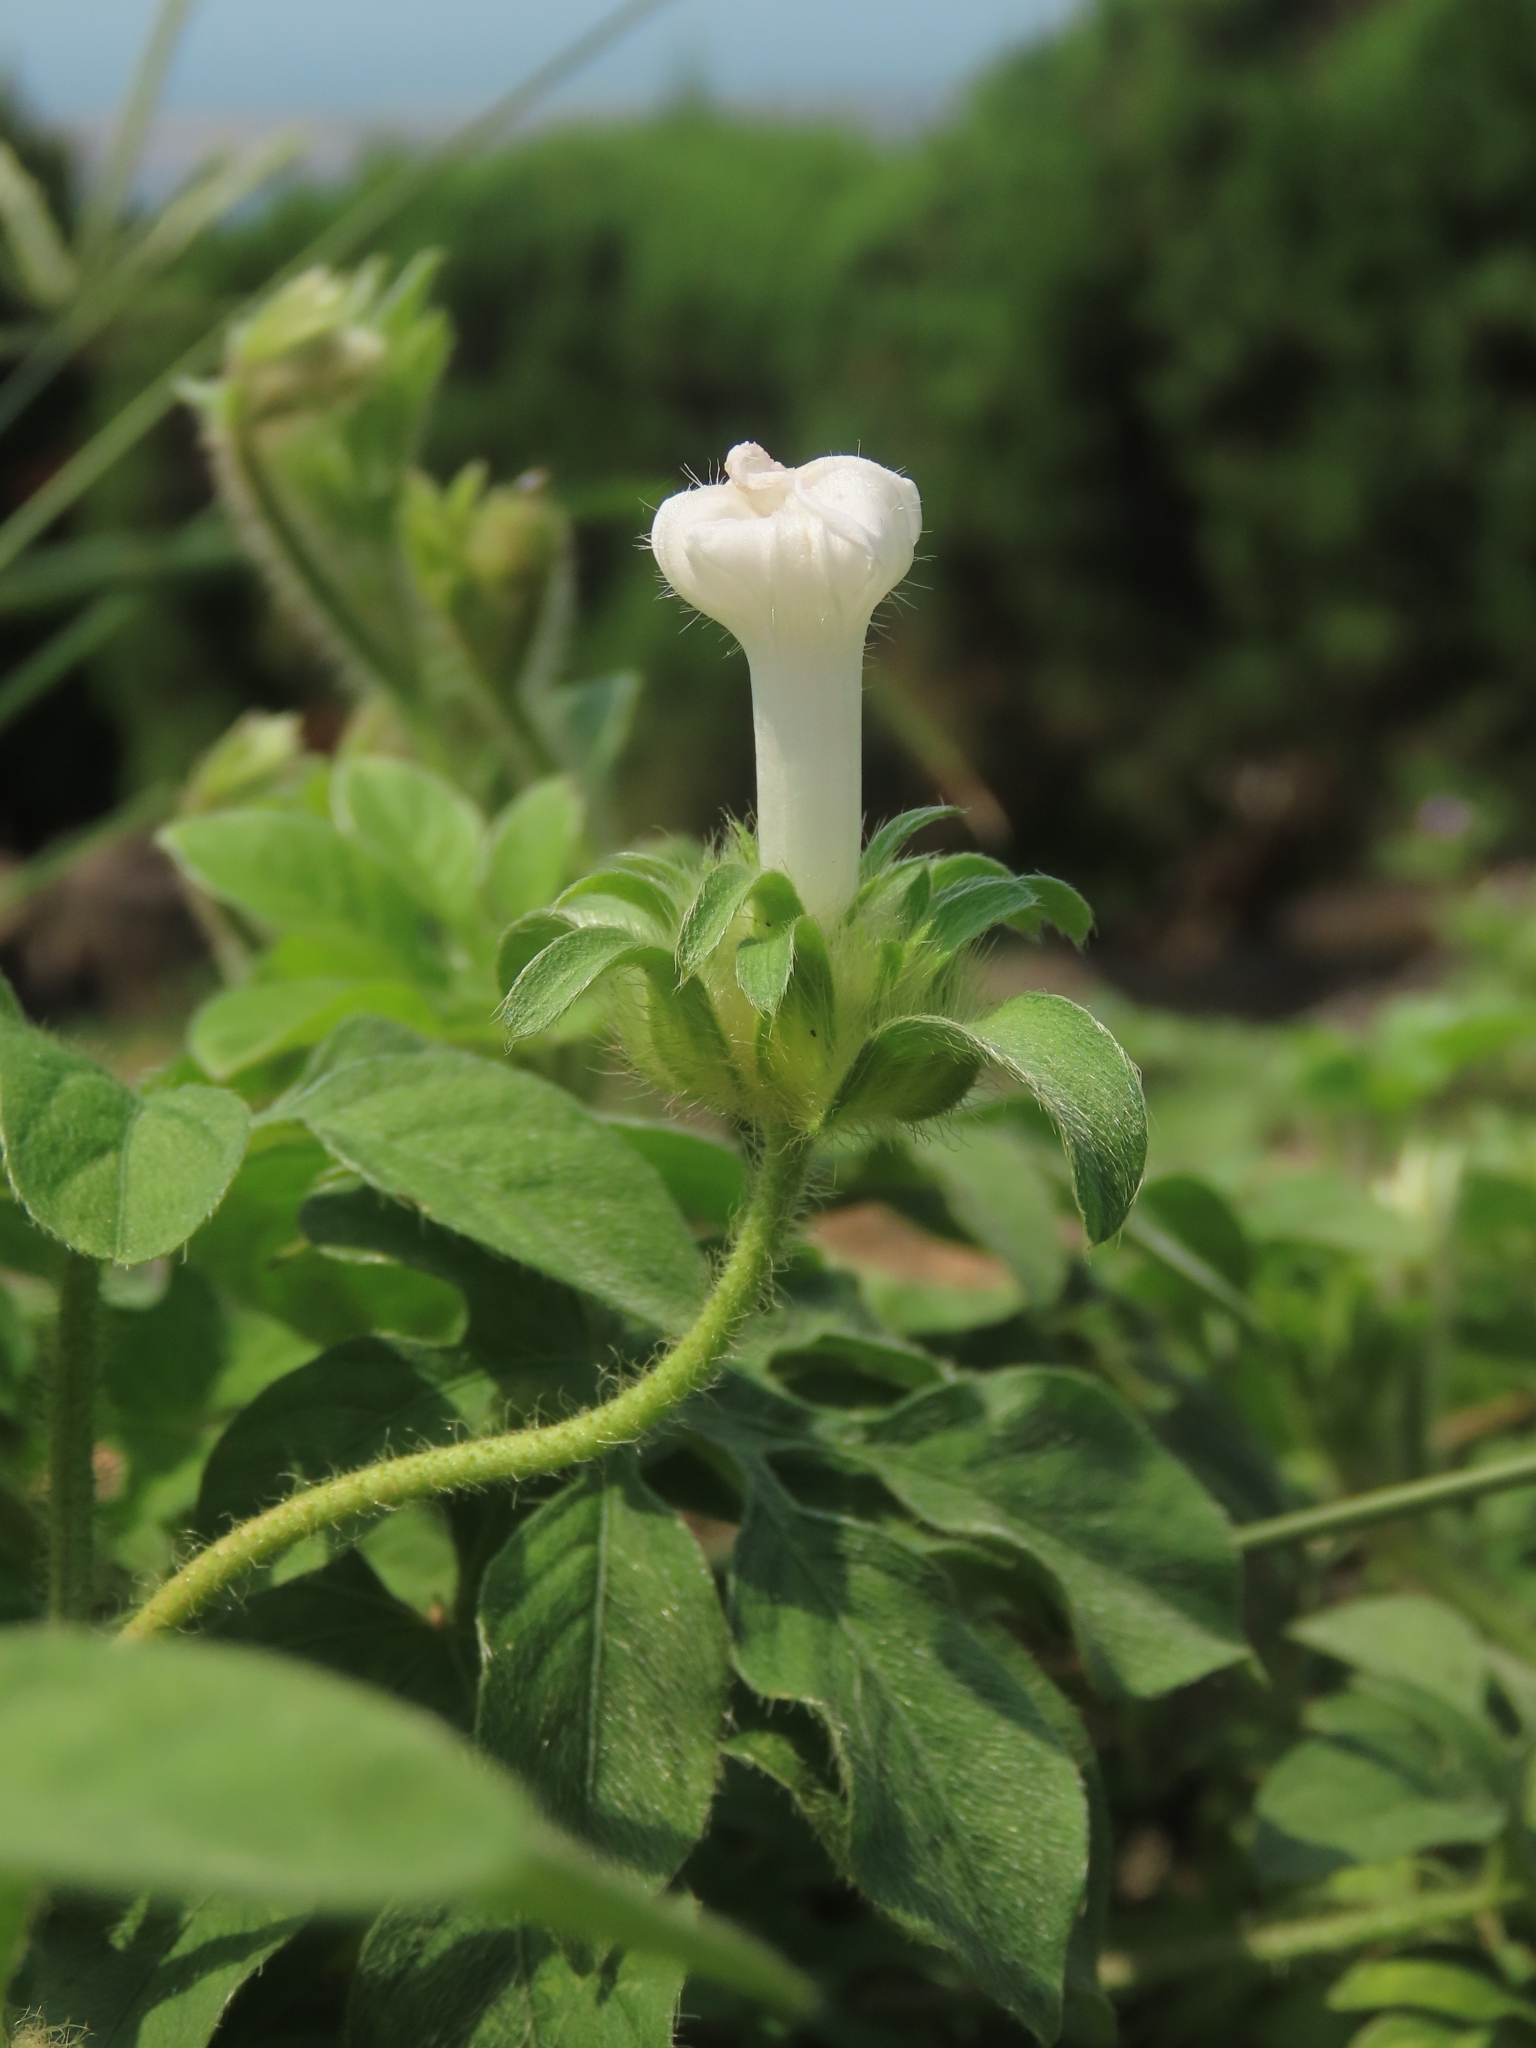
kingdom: Plantae
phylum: Tracheophyta
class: Magnoliopsida
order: Solanales
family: Convolvulaceae
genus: Ipomoea
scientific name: Ipomoea pes-tigridis
